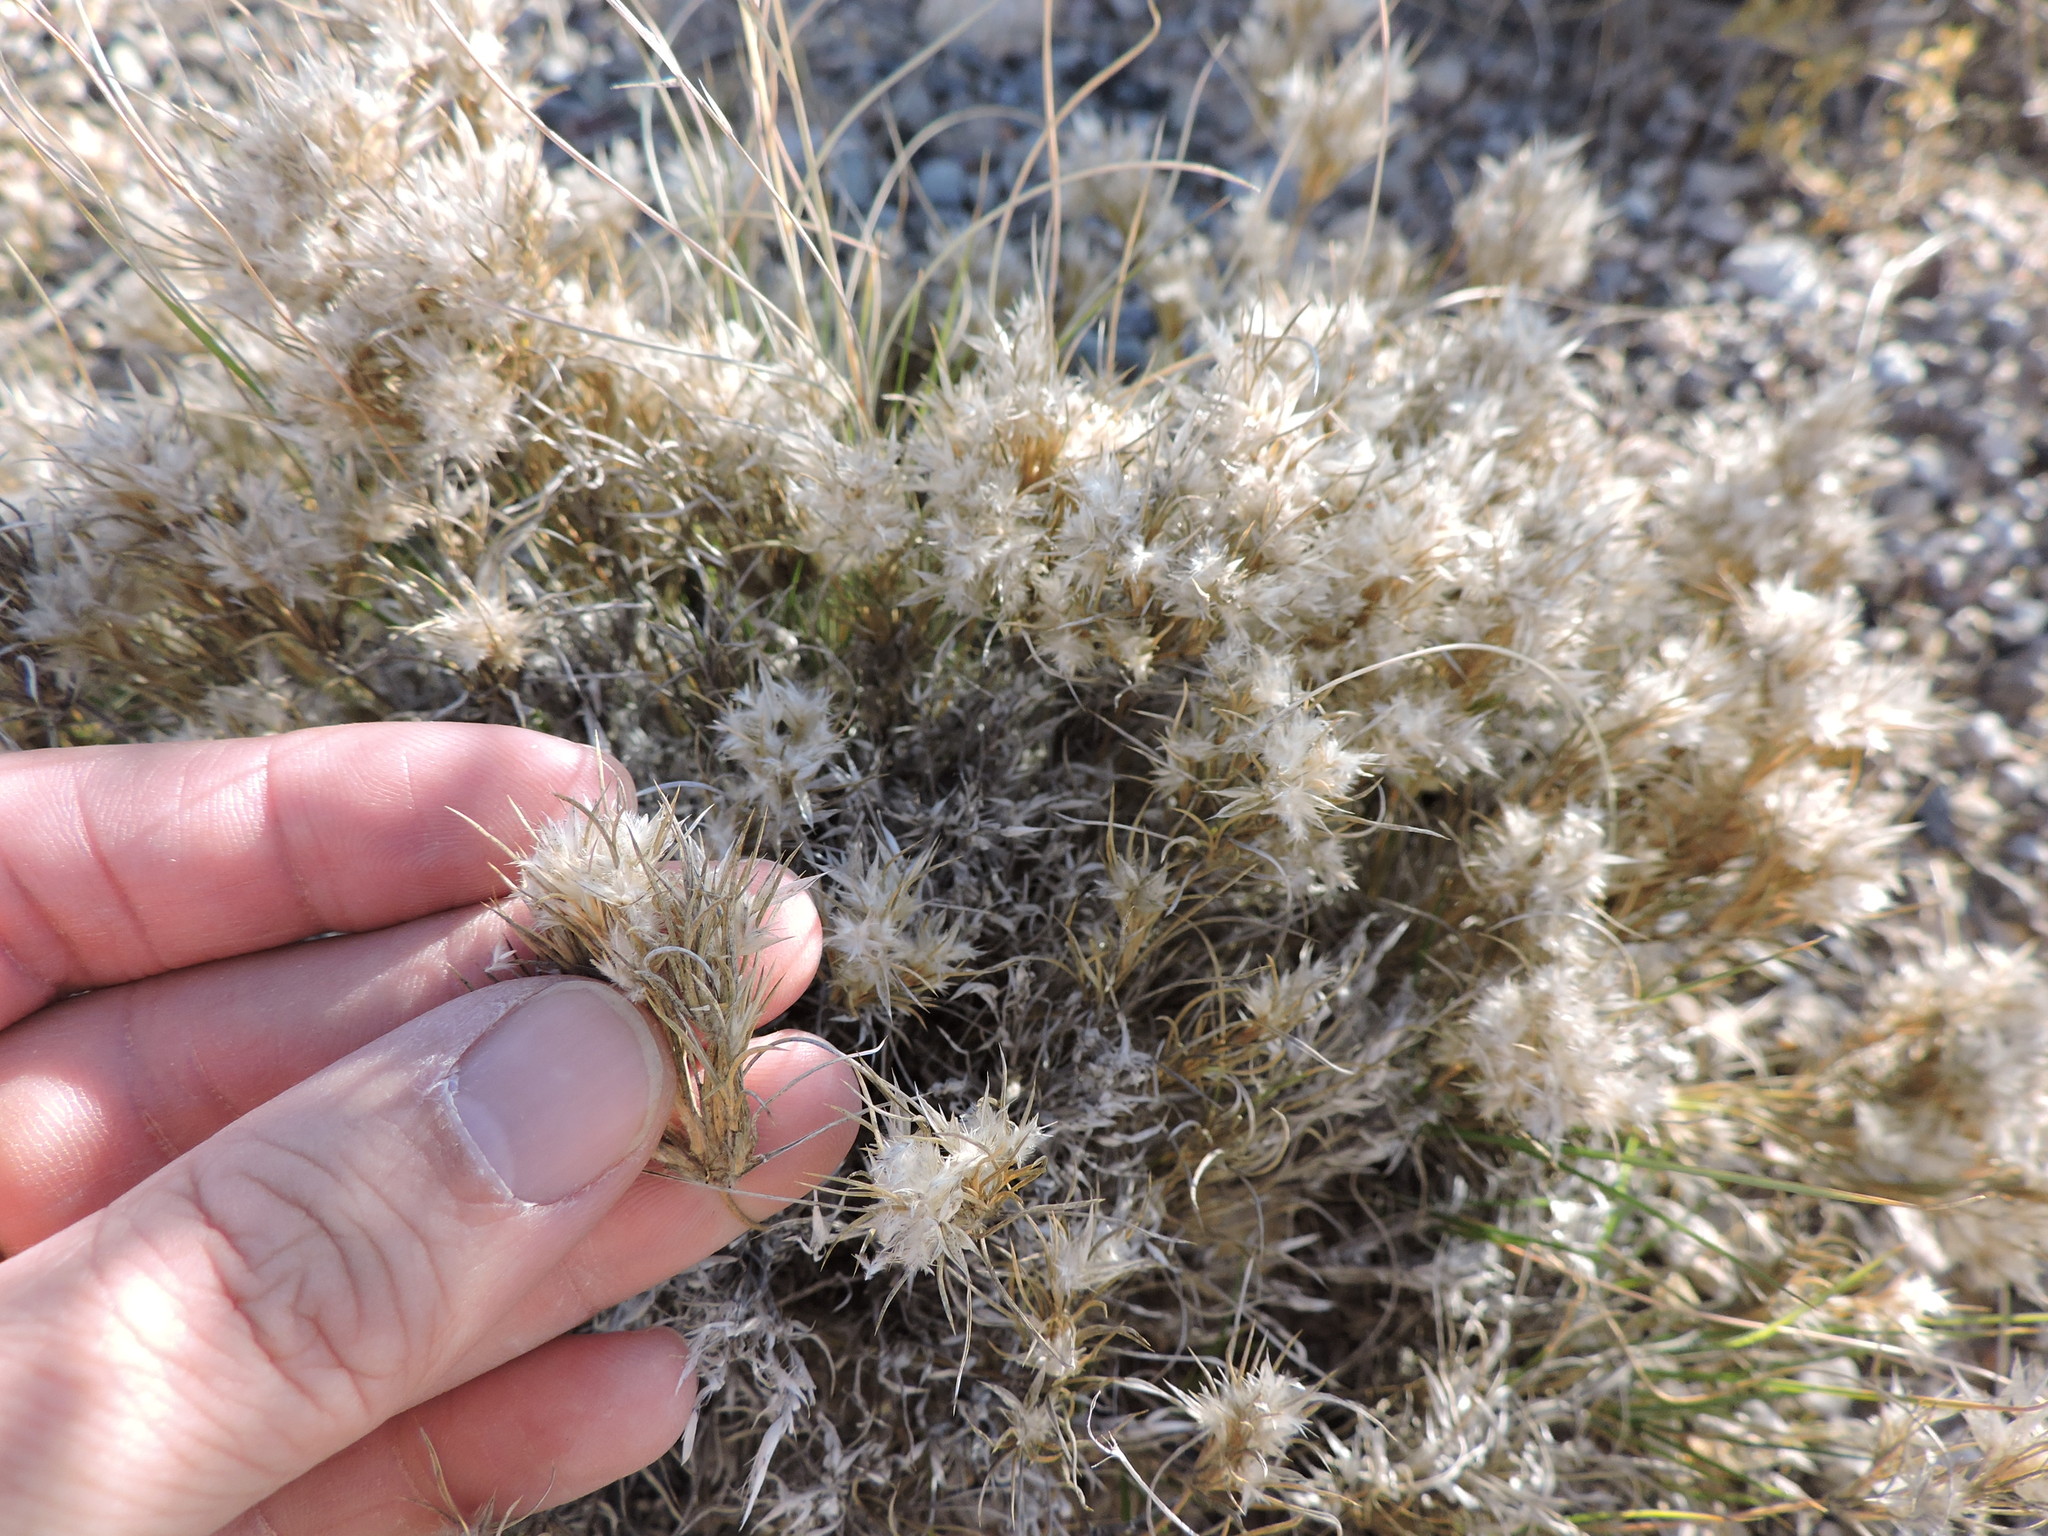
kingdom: Plantae
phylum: Tracheophyta
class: Liliopsida
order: Poales
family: Poaceae
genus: Dasyochloa
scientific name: Dasyochloa pulchella
